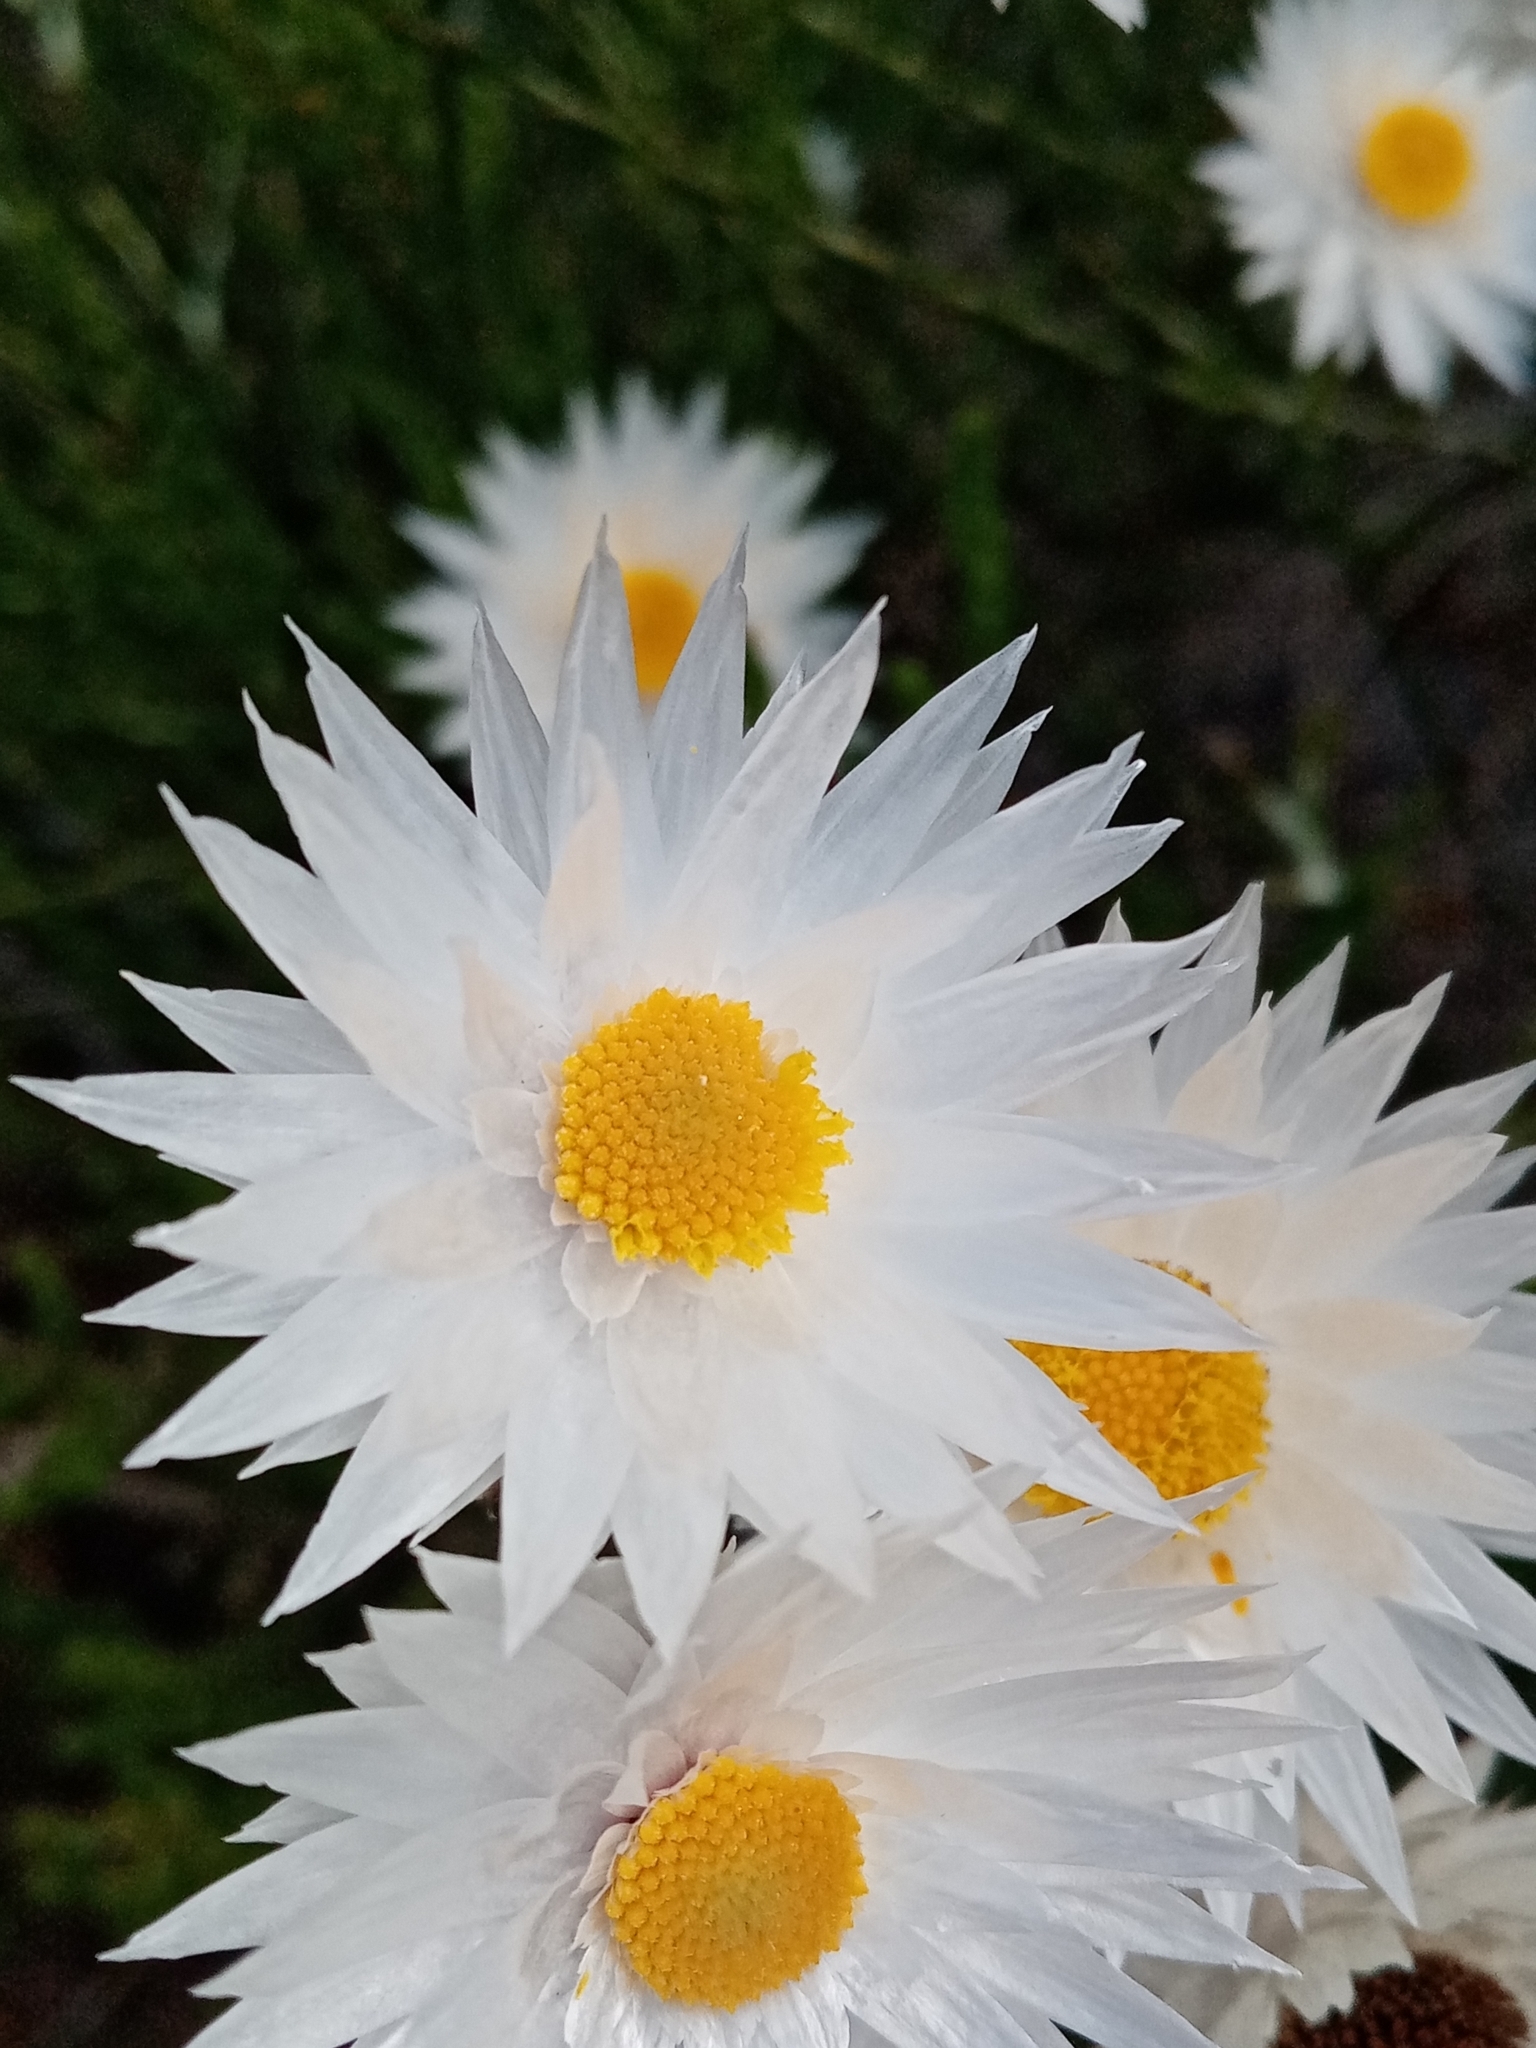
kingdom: Plantae
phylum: Tracheophyta
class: Magnoliopsida
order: Asterales
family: Asteraceae
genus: Edmondia
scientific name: Edmondia sesamoides
